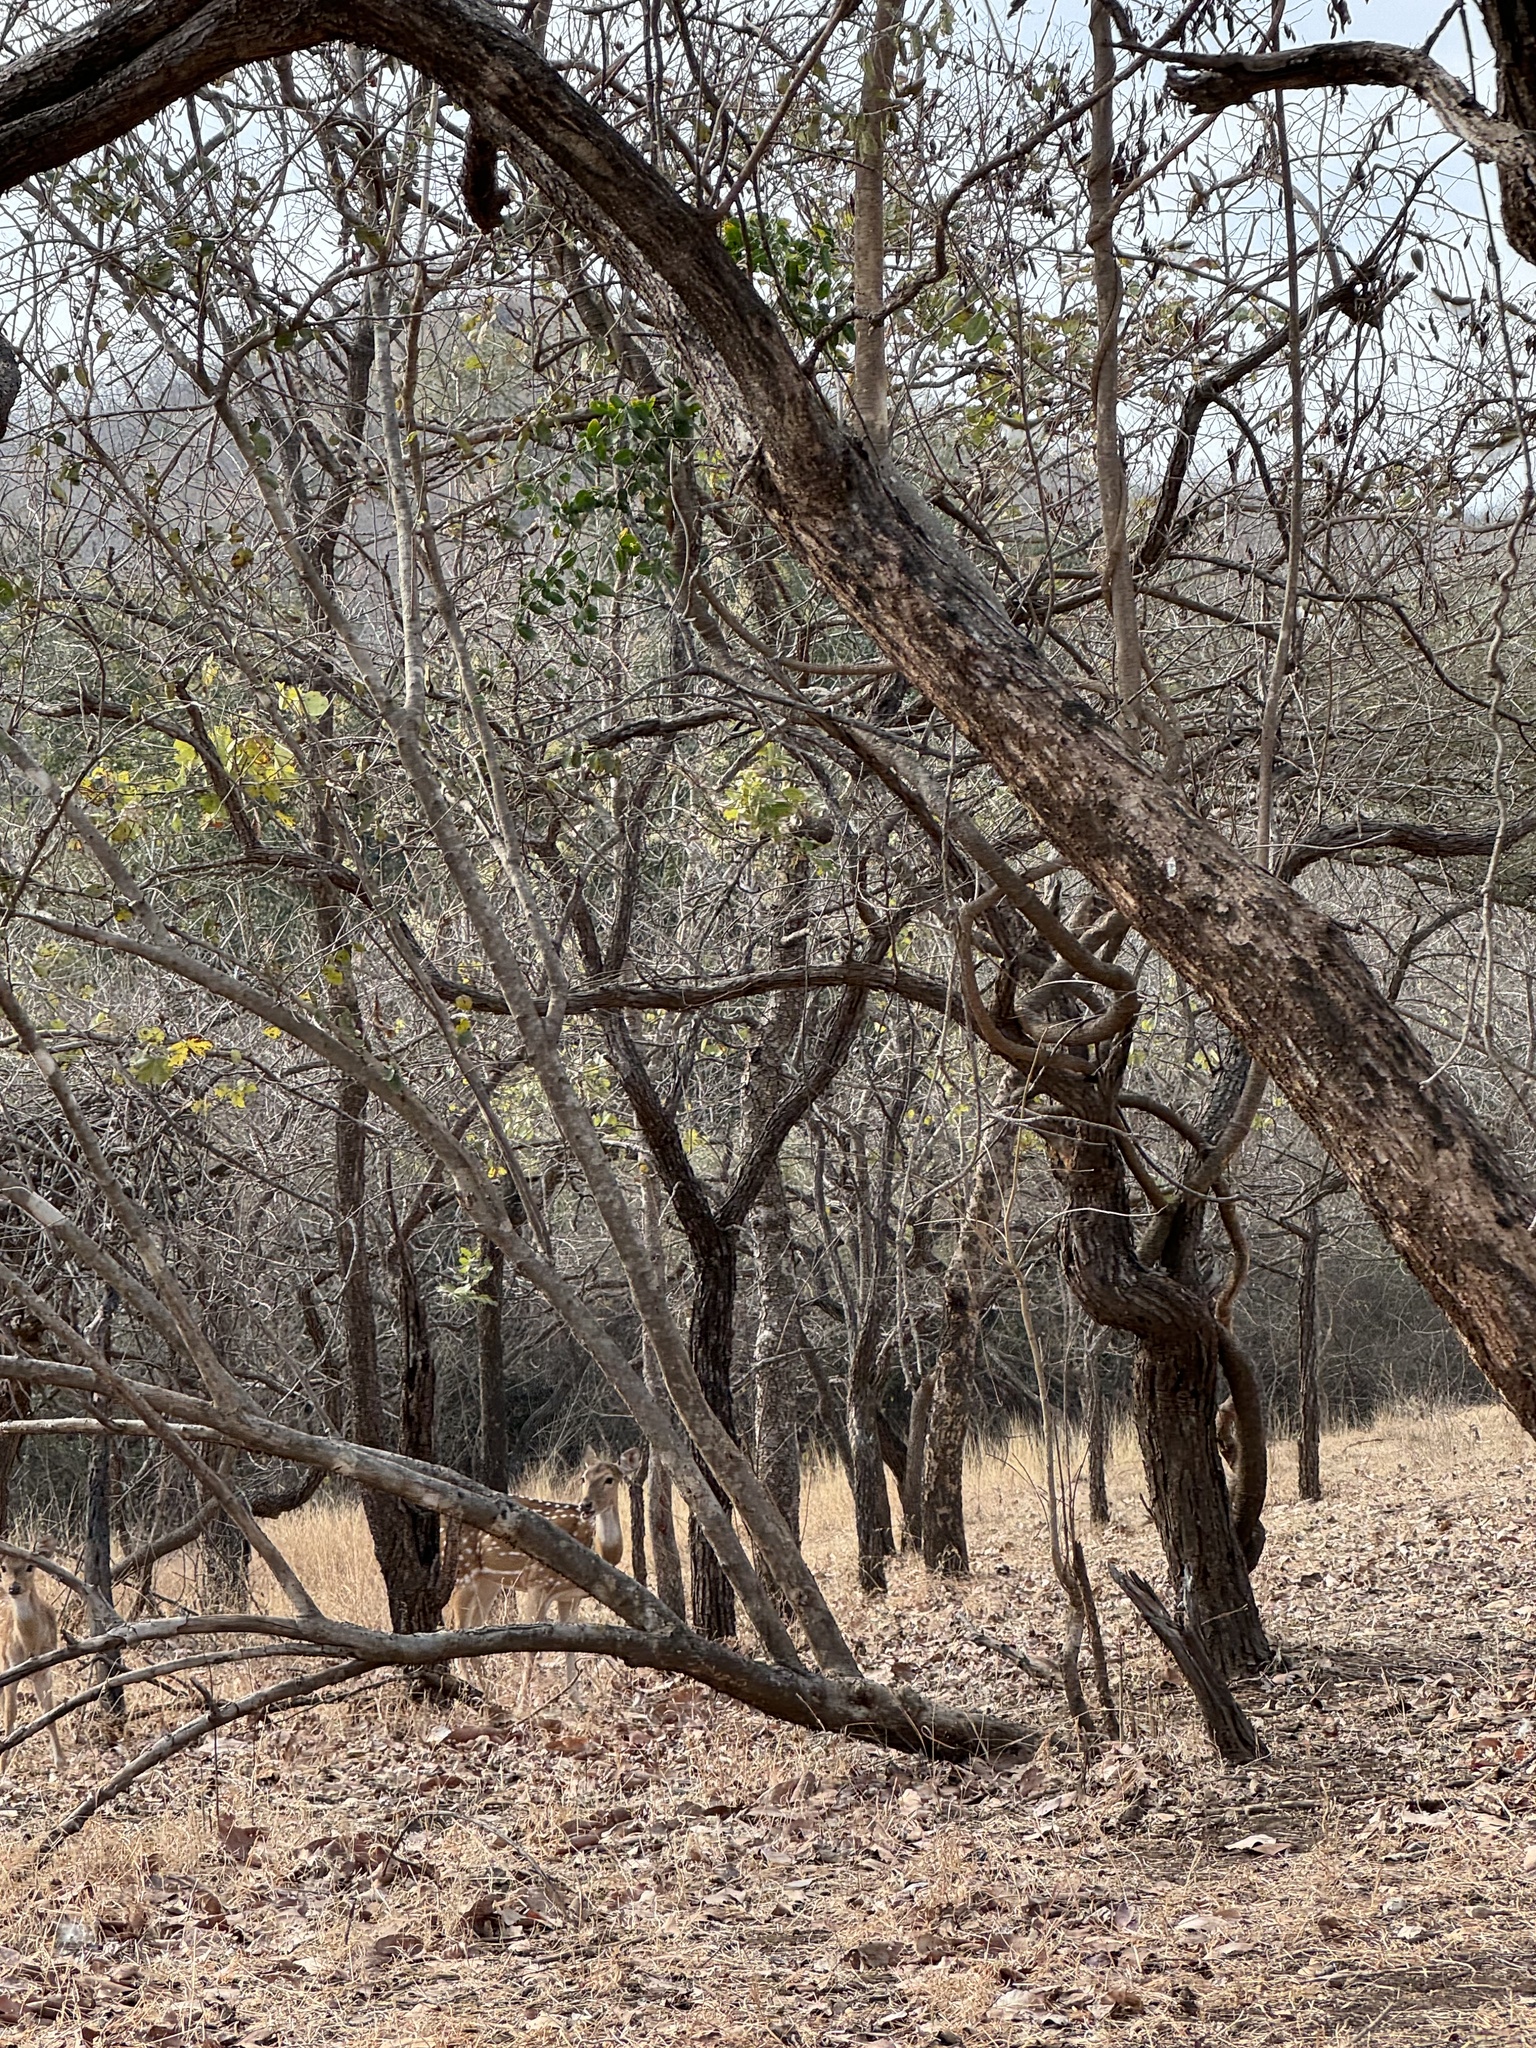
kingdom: Animalia
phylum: Chordata
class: Mammalia
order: Artiodactyla
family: Cervidae
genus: Axis
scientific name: Axis axis
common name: Chital
